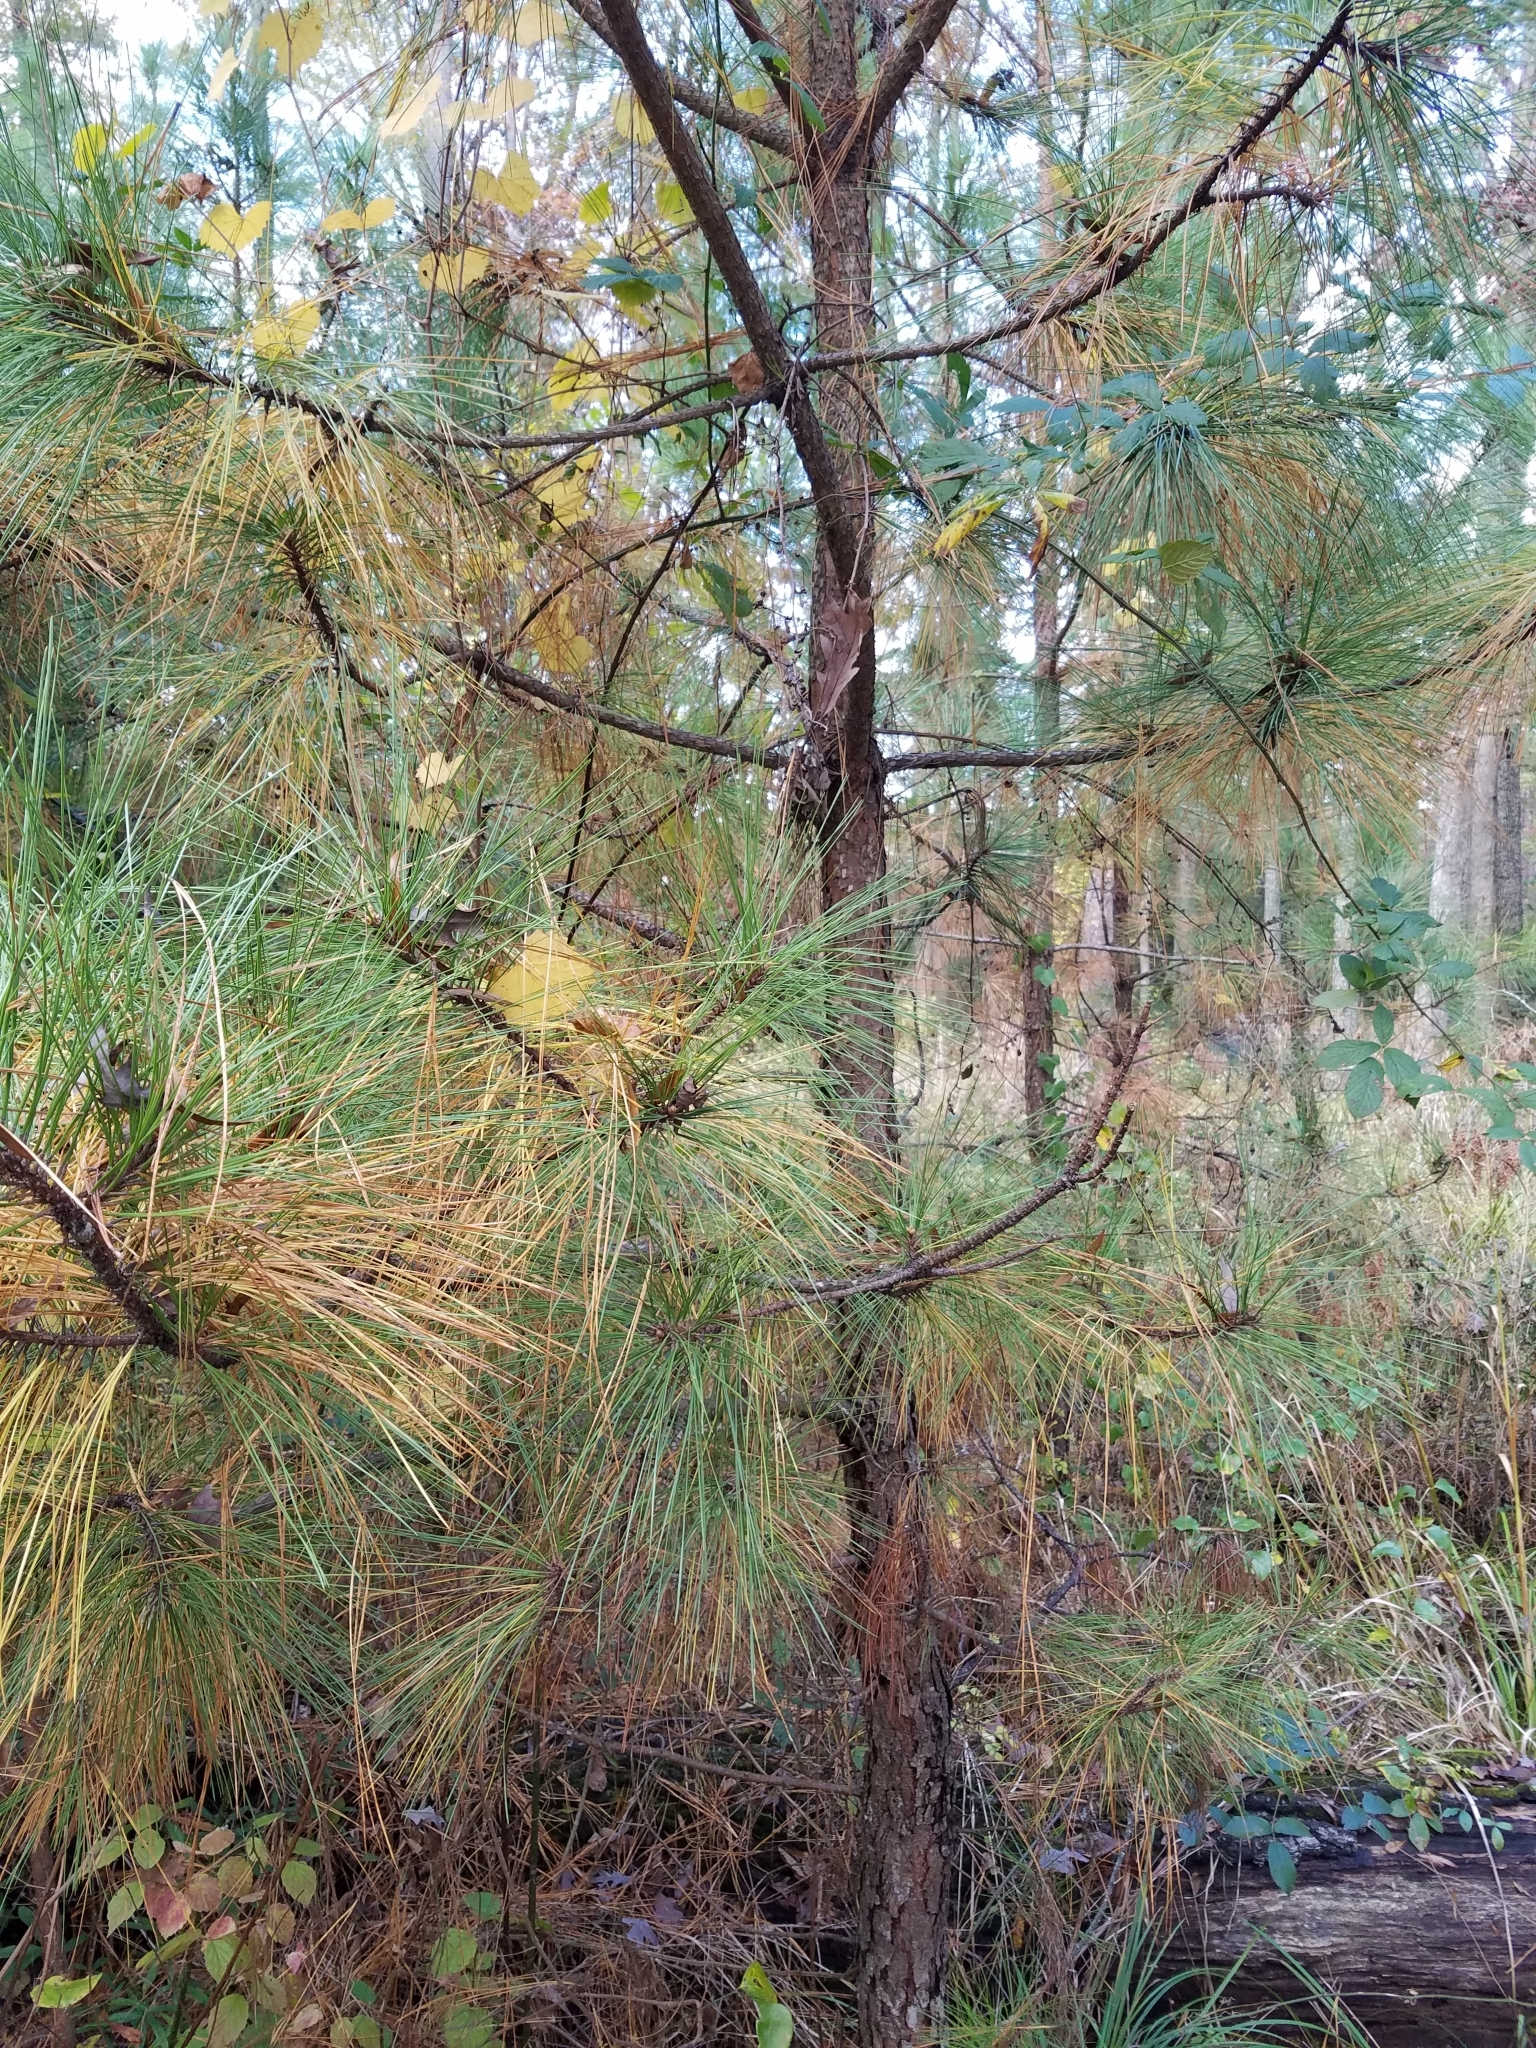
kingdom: Plantae
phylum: Tracheophyta
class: Pinopsida
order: Pinales
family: Pinaceae
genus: Pinus
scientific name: Pinus taeda
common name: Loblolly pine
